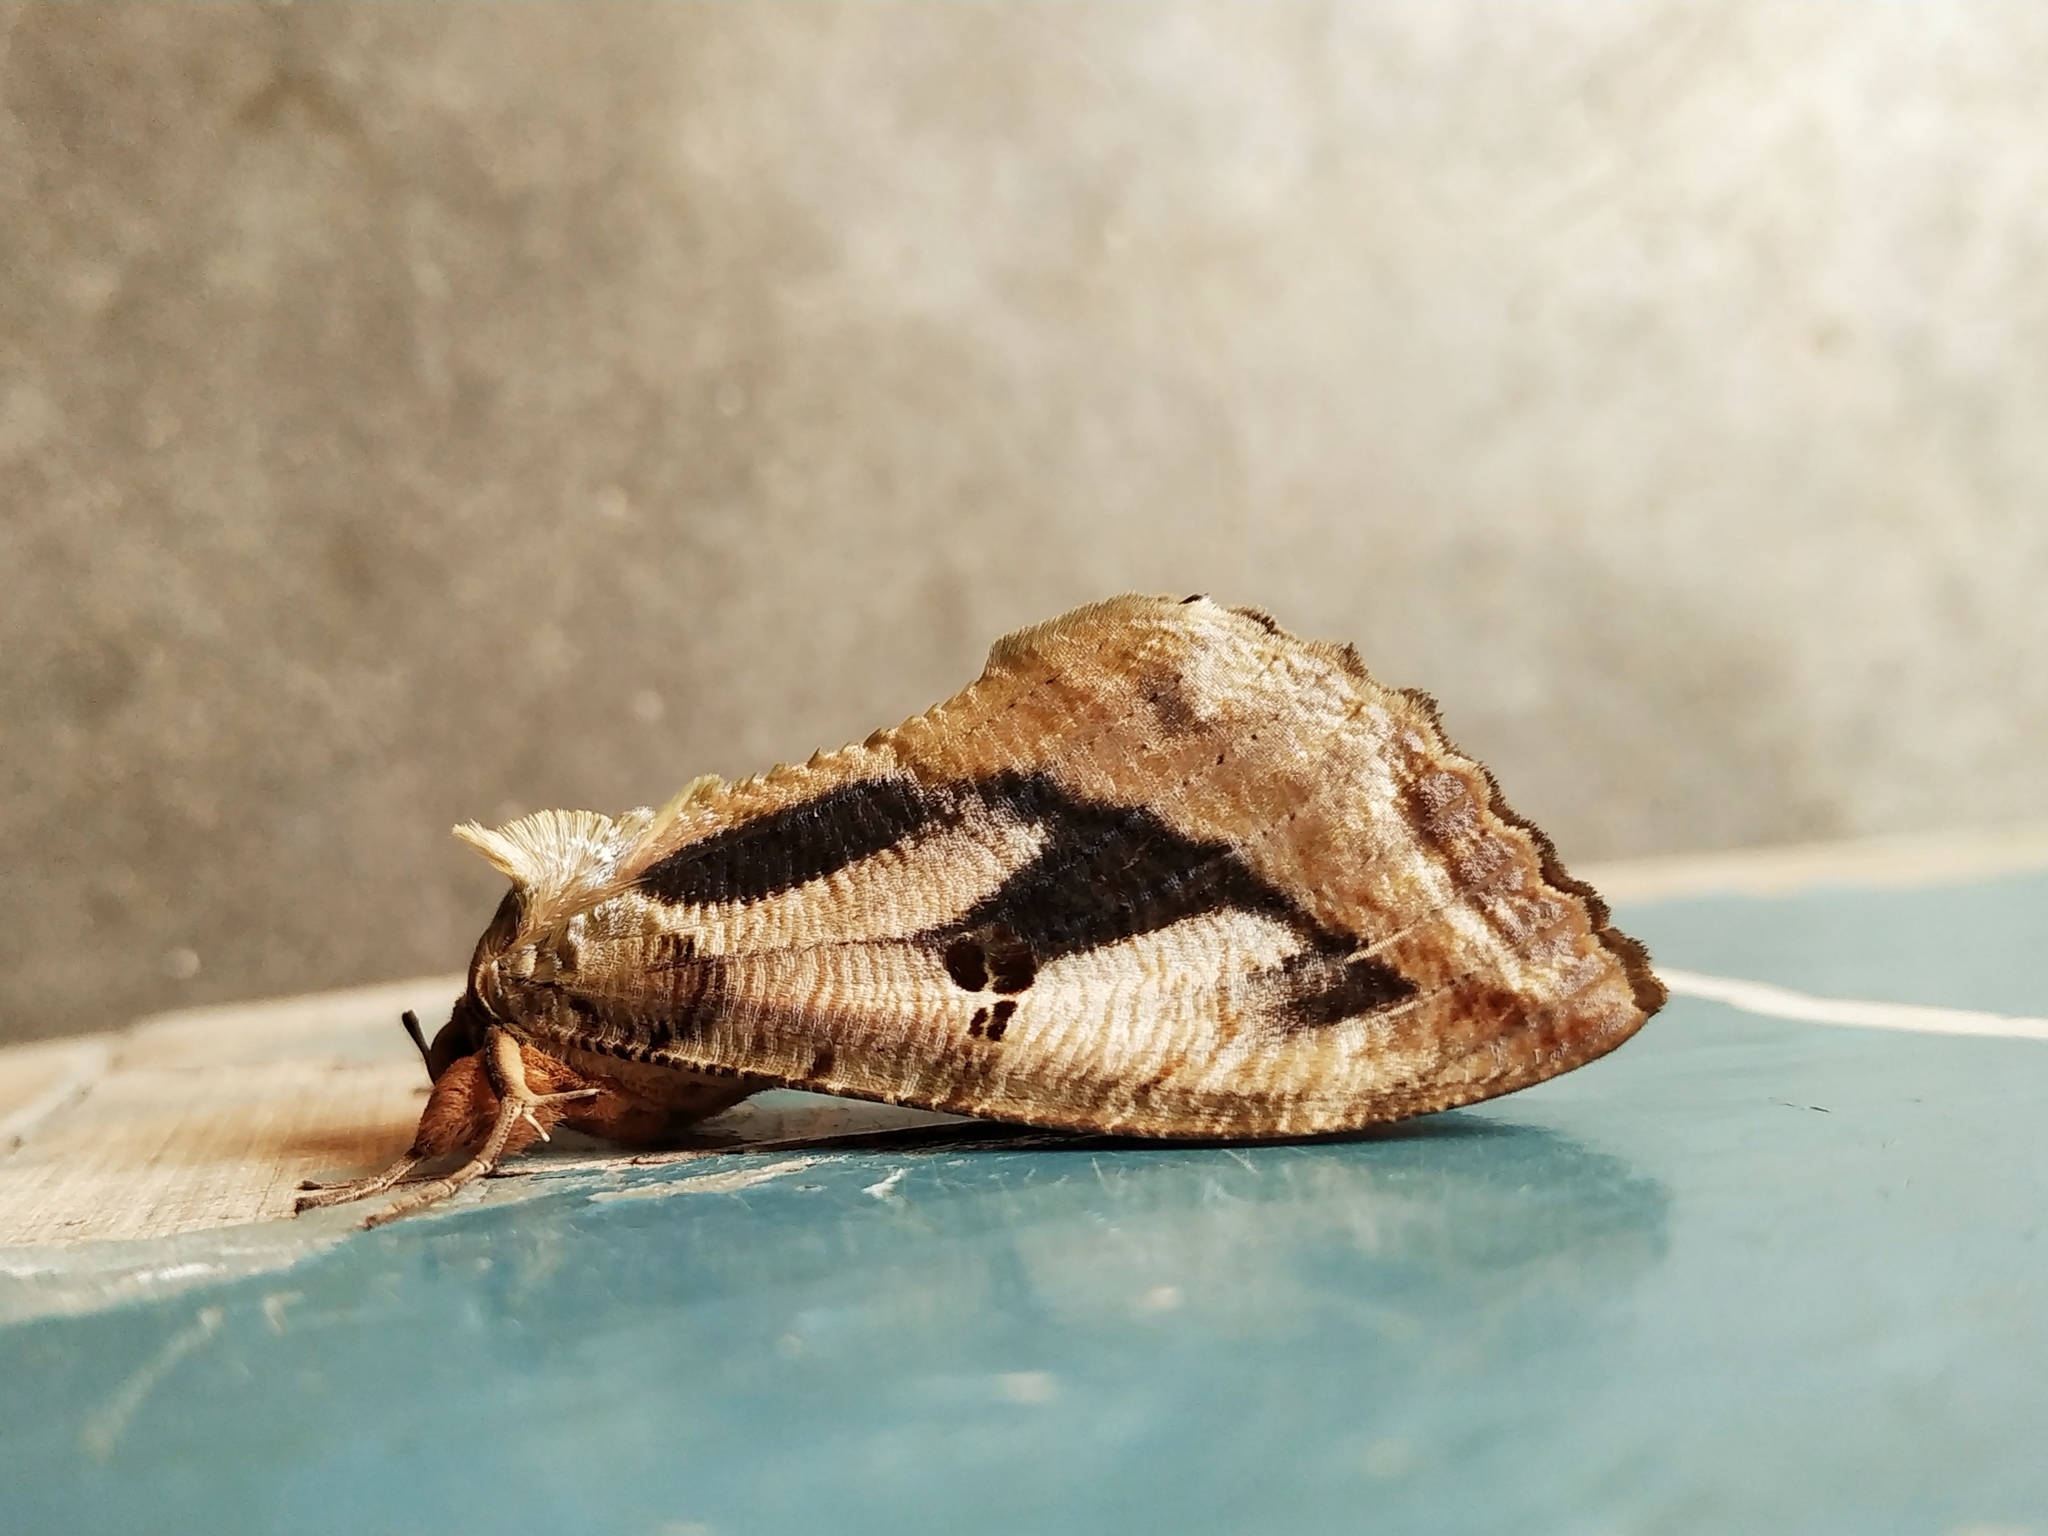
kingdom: Animalia
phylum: Arthropoda
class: Insecta
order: Lepidoptera
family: Erebidae
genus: Eudocima
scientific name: Eudocima materna
